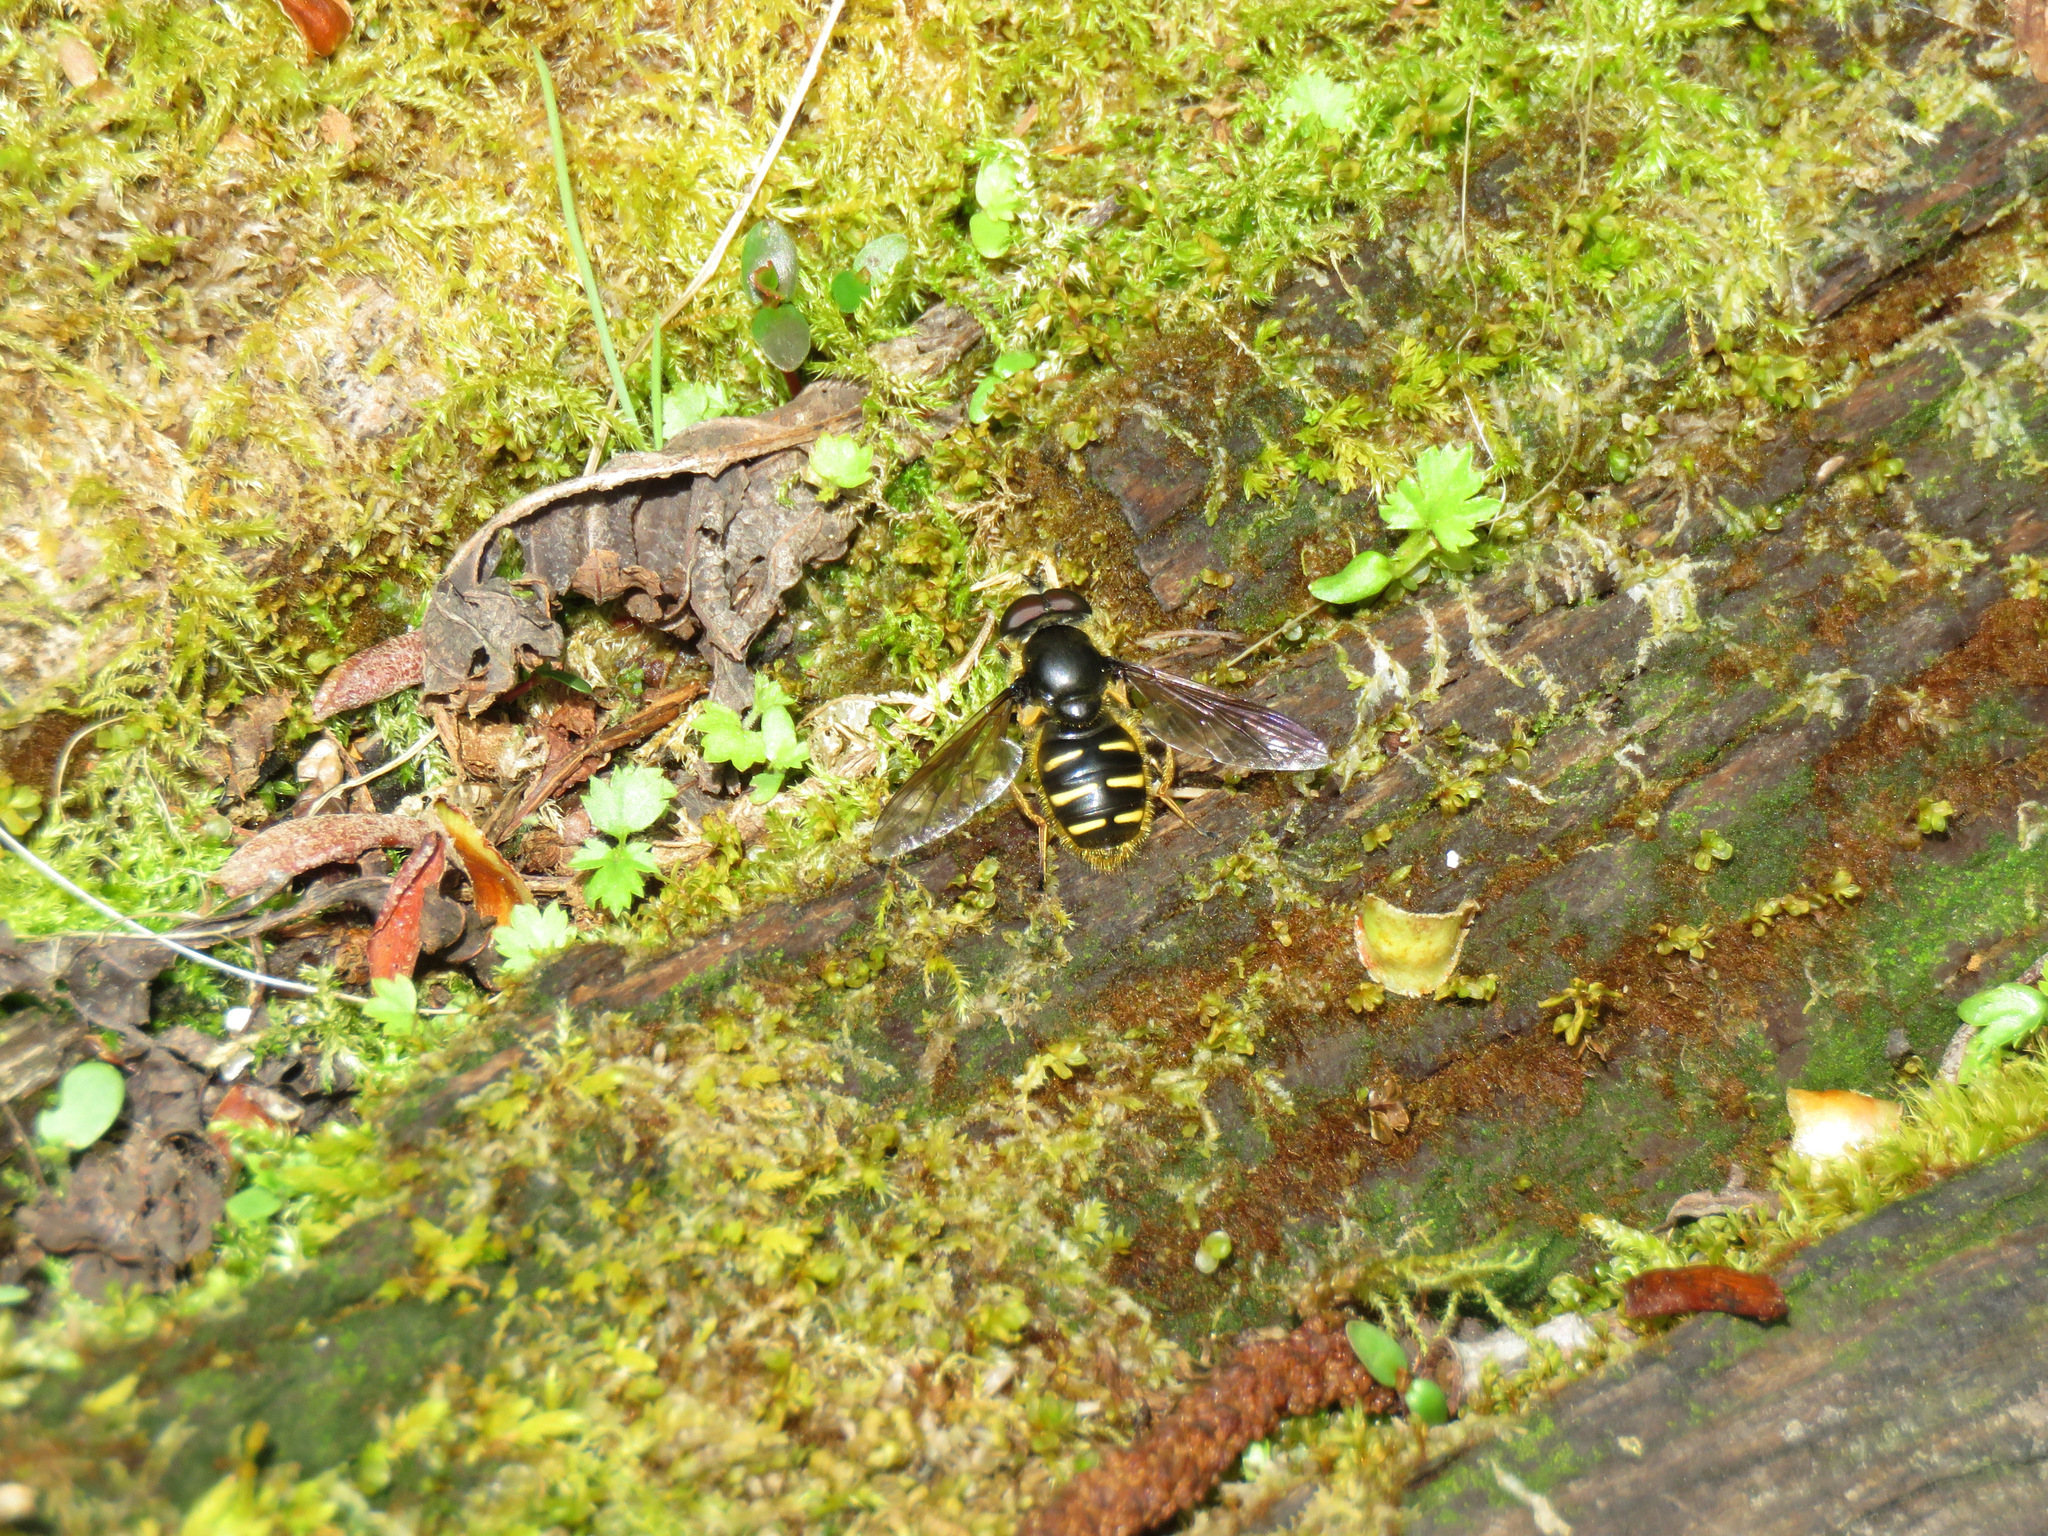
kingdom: Animalia
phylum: Arthropoda
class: Insecta
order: Diptera
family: Syrphidae
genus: Sericomyia
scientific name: Sericomyia chalcopyga
